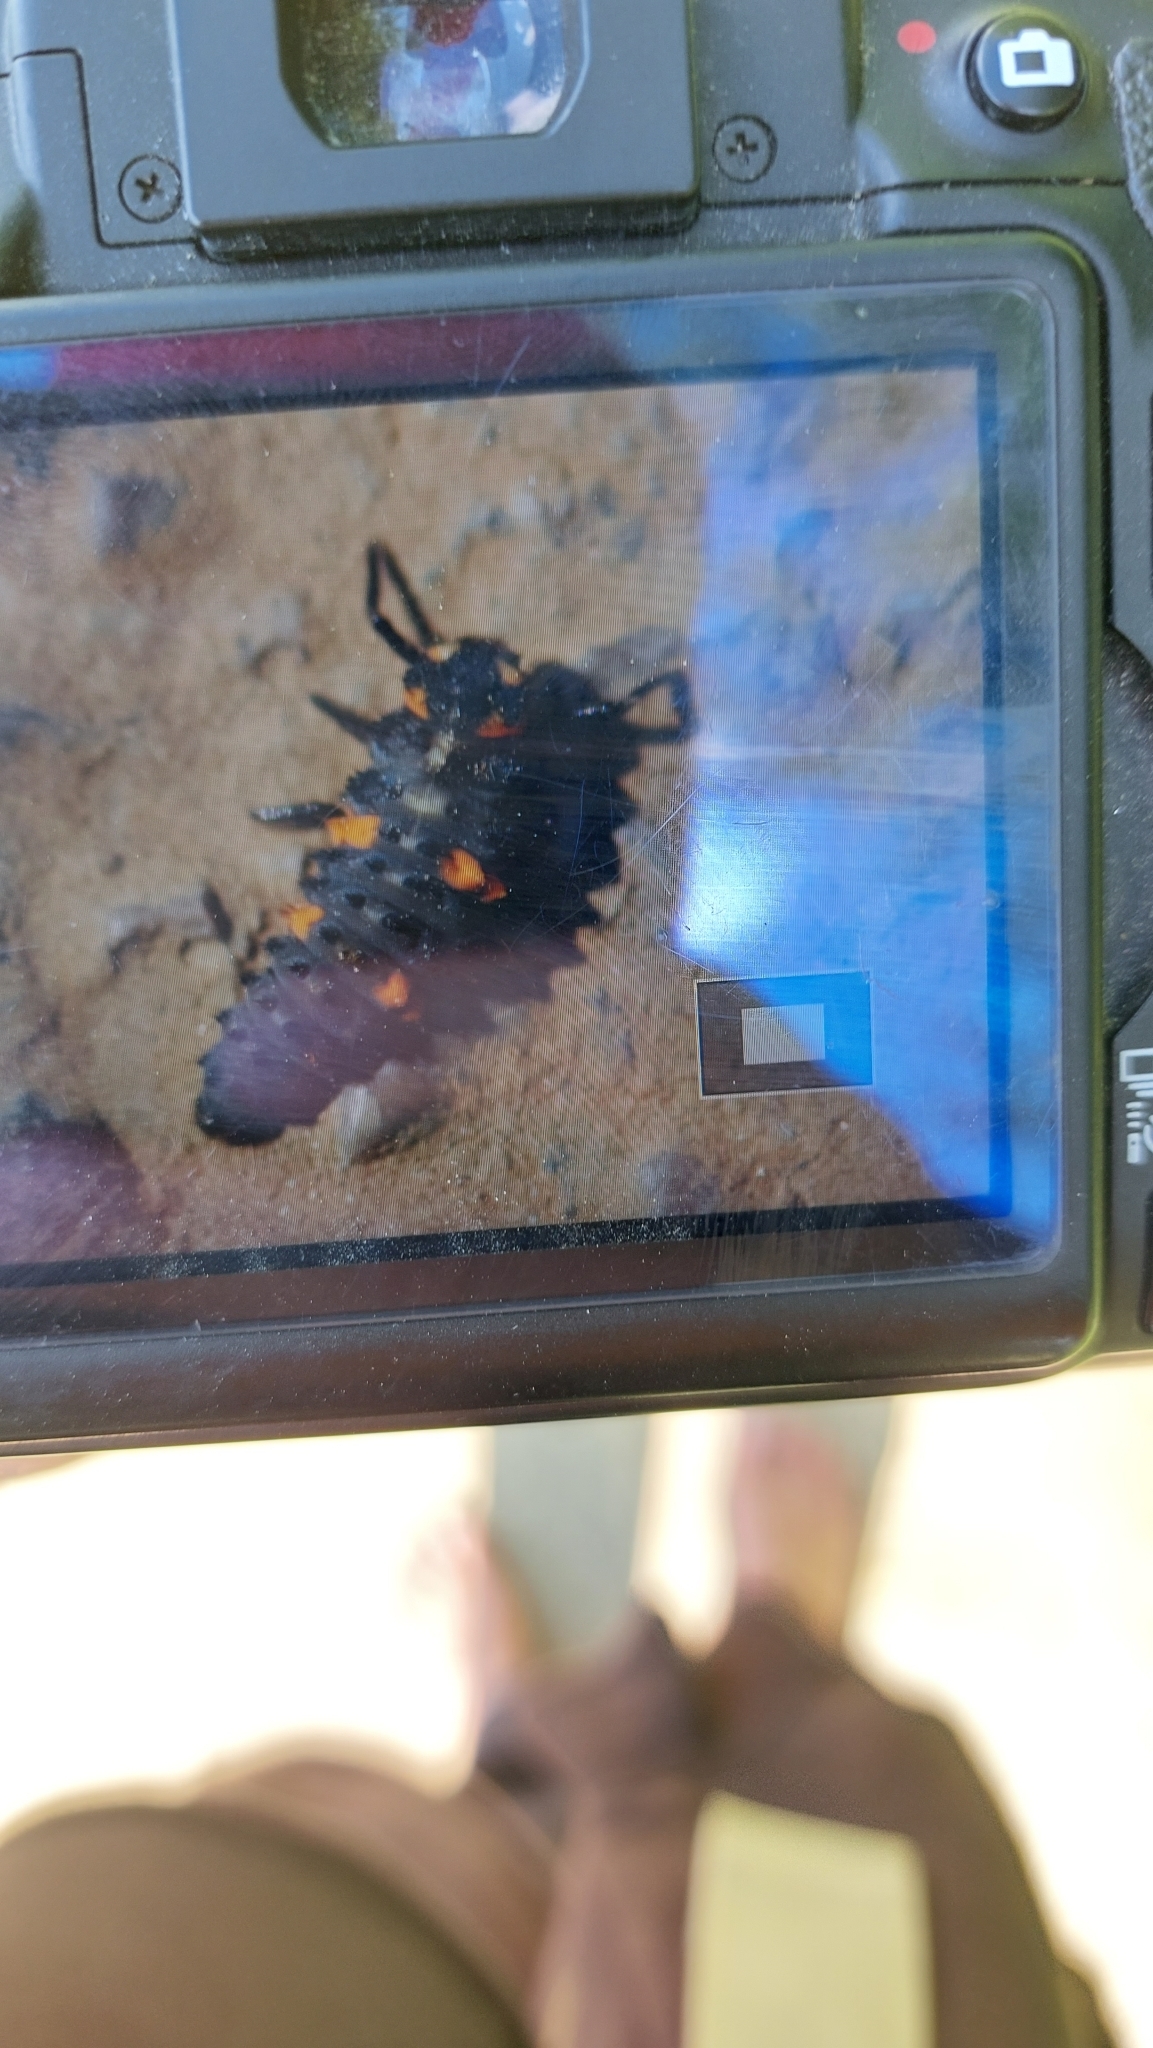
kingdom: Animalia
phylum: Arthropoda
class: Insecta
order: Coleoptera
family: Coccinellidae
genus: Coccinella
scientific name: Coccinella septempunctata
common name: Sevenspotted lady beetle
